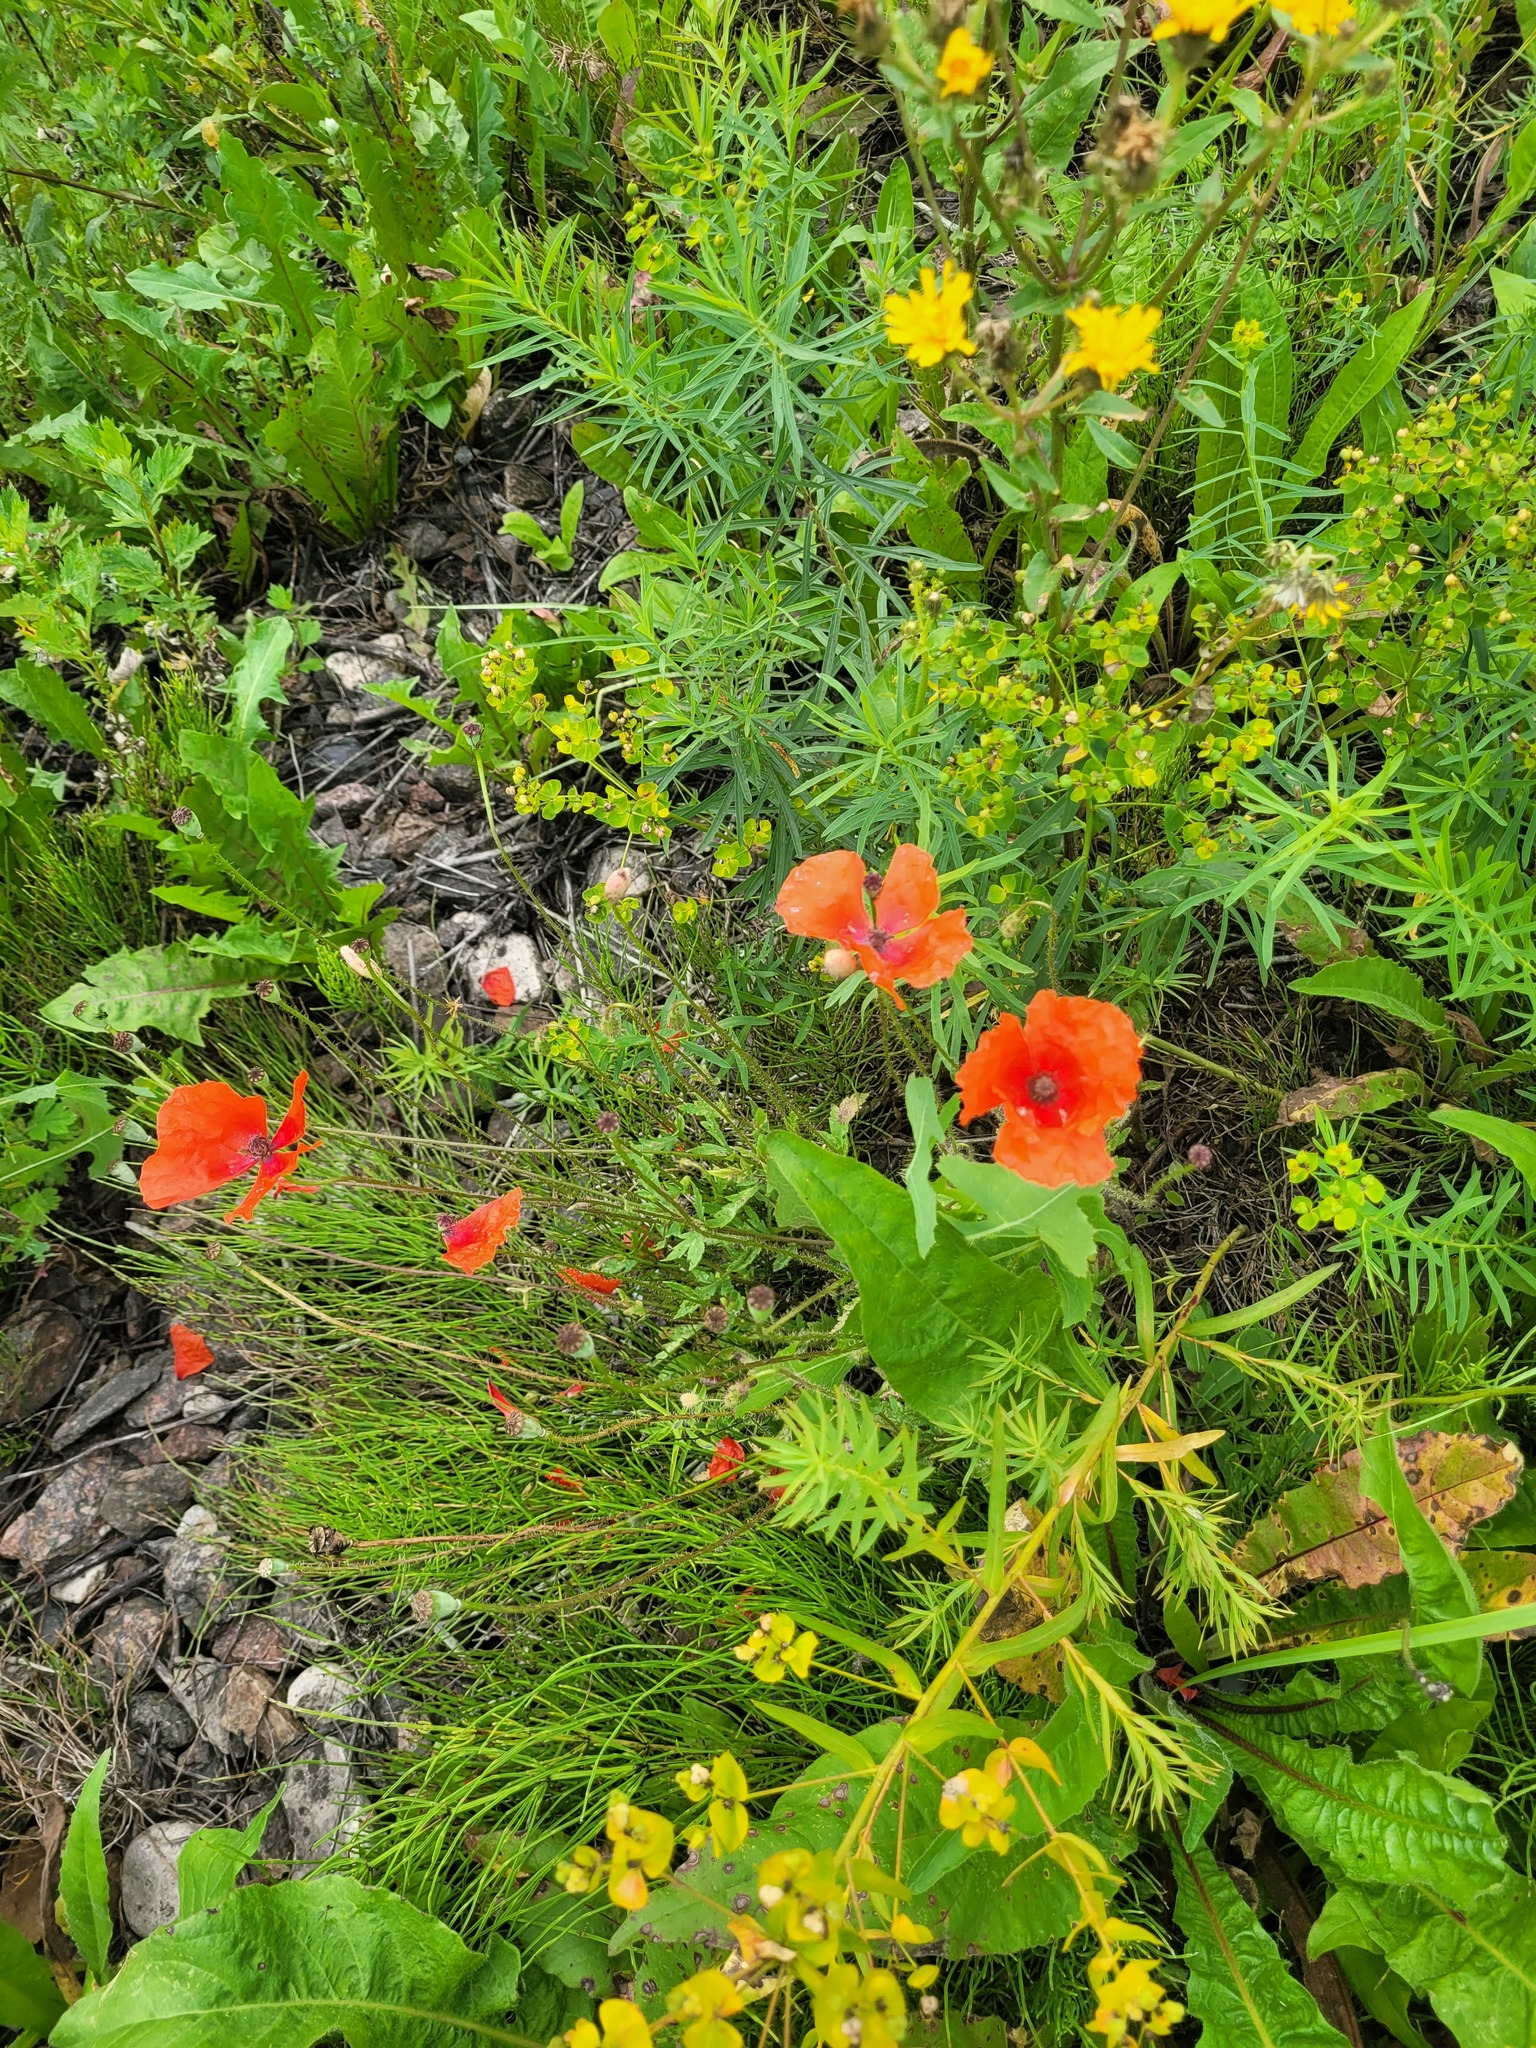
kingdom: Plantae
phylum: Tracheophyta
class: Magnoliopsida
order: Ranunculales
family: Papaveraceae
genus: Papaver
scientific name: Papaver rhoeas
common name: Corn poppy
